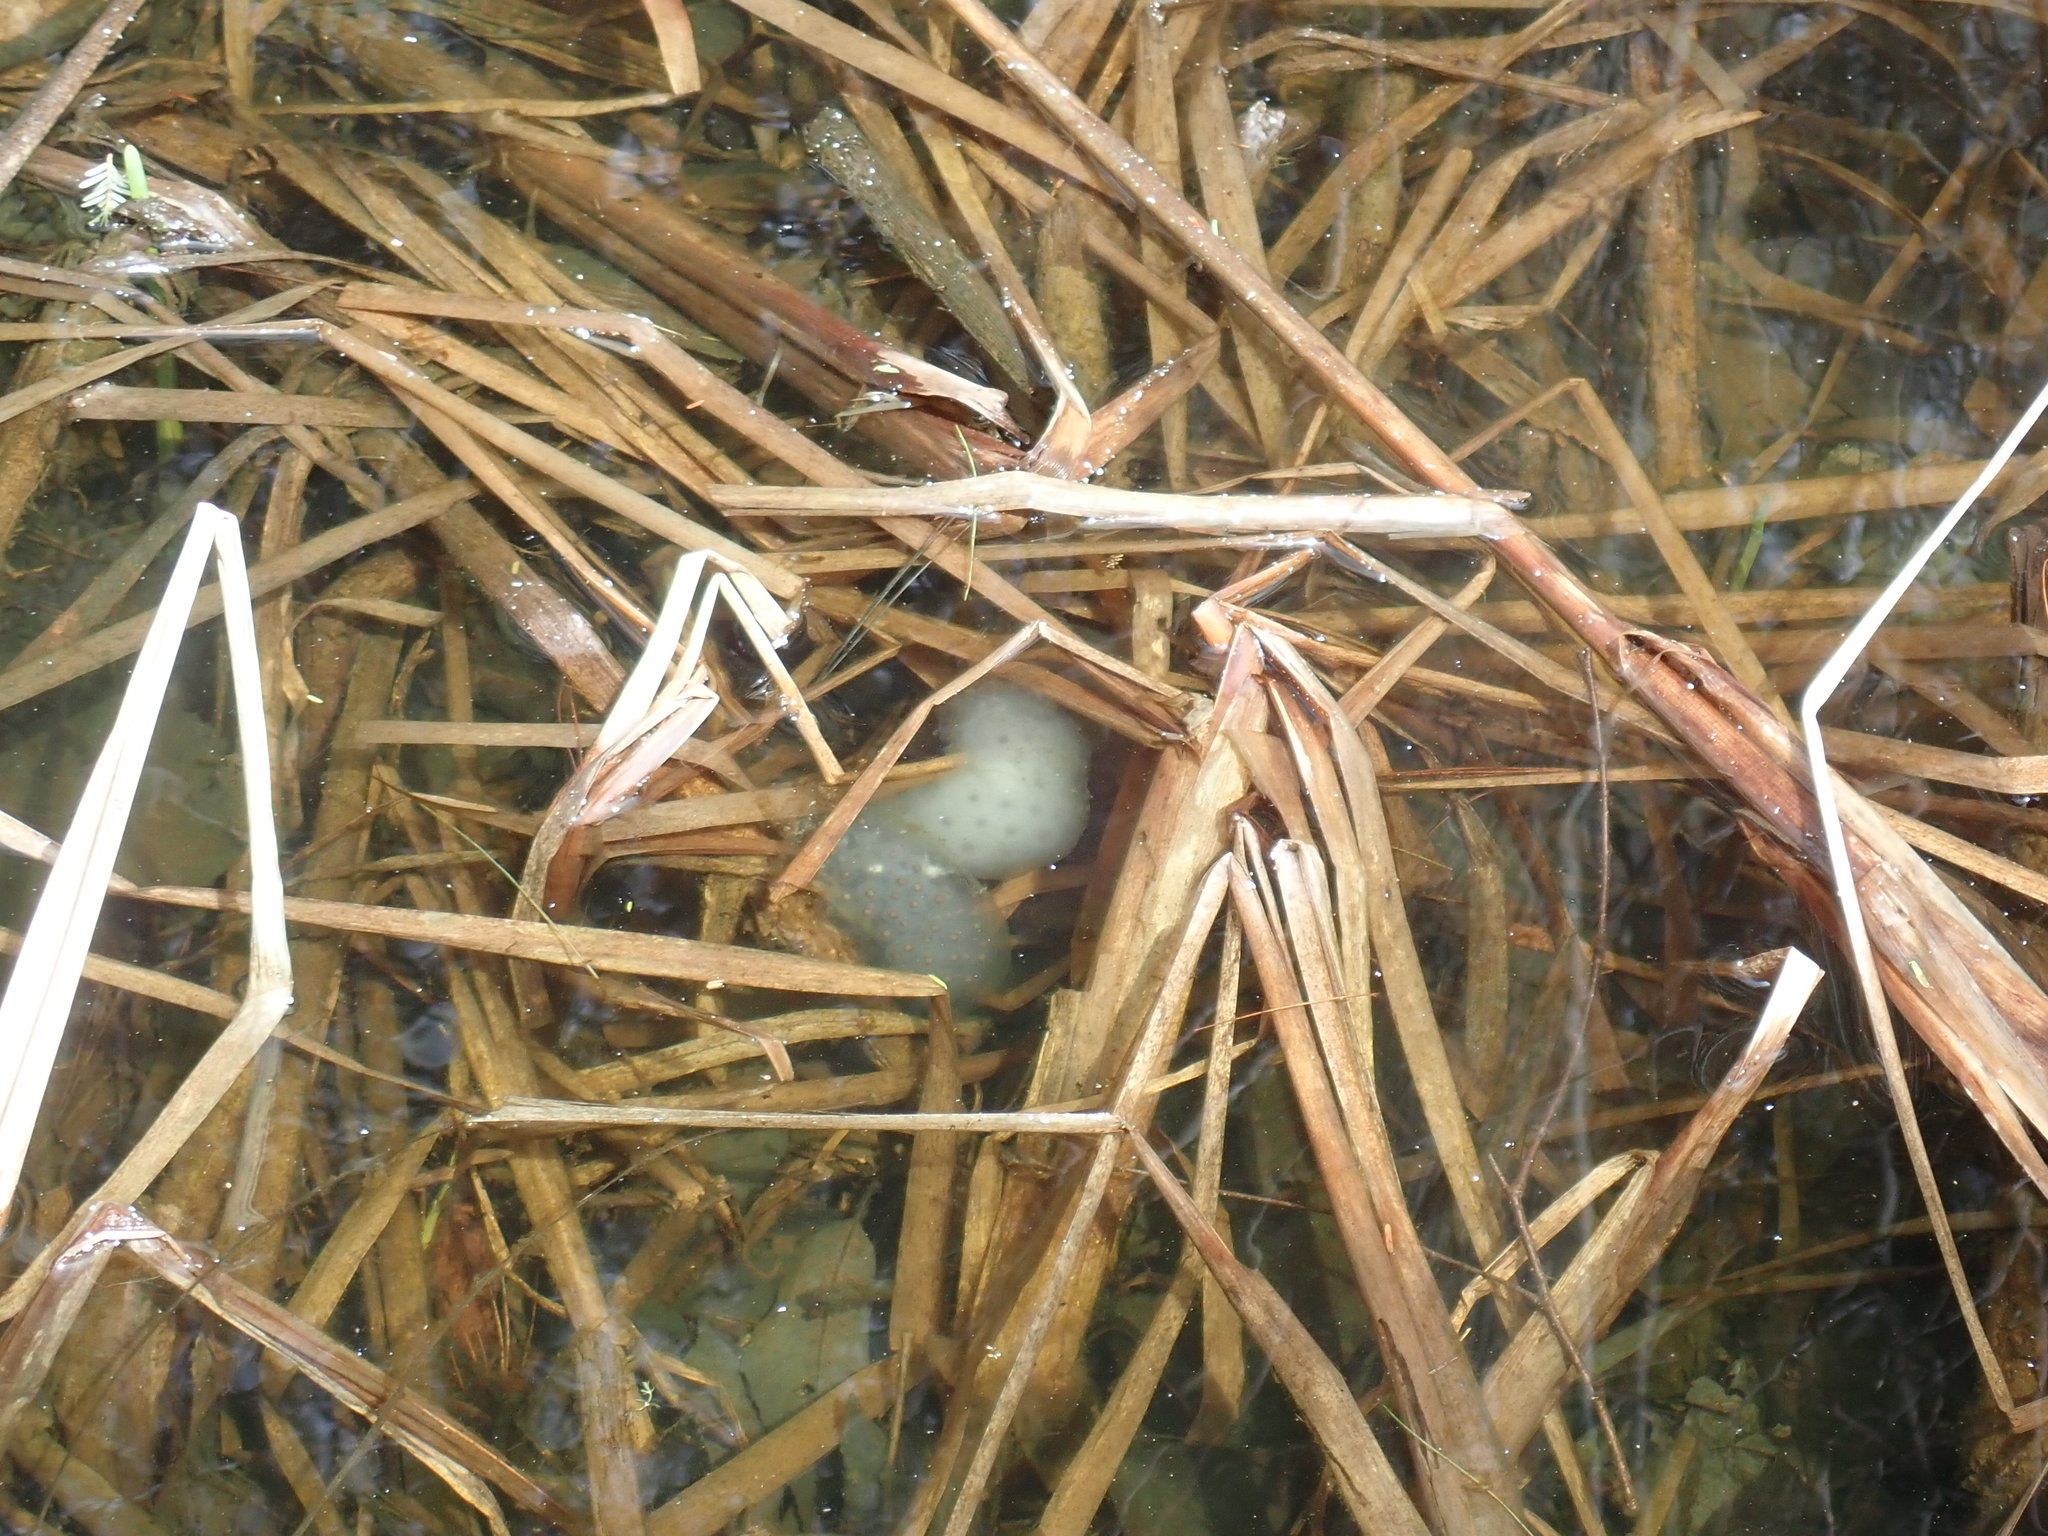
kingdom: Animalia
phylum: Chordata
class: Amphibia
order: Caudata
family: Ambystomatidae
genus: Ambystoma
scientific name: Ambystoma maculatum
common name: Spotted salamander
